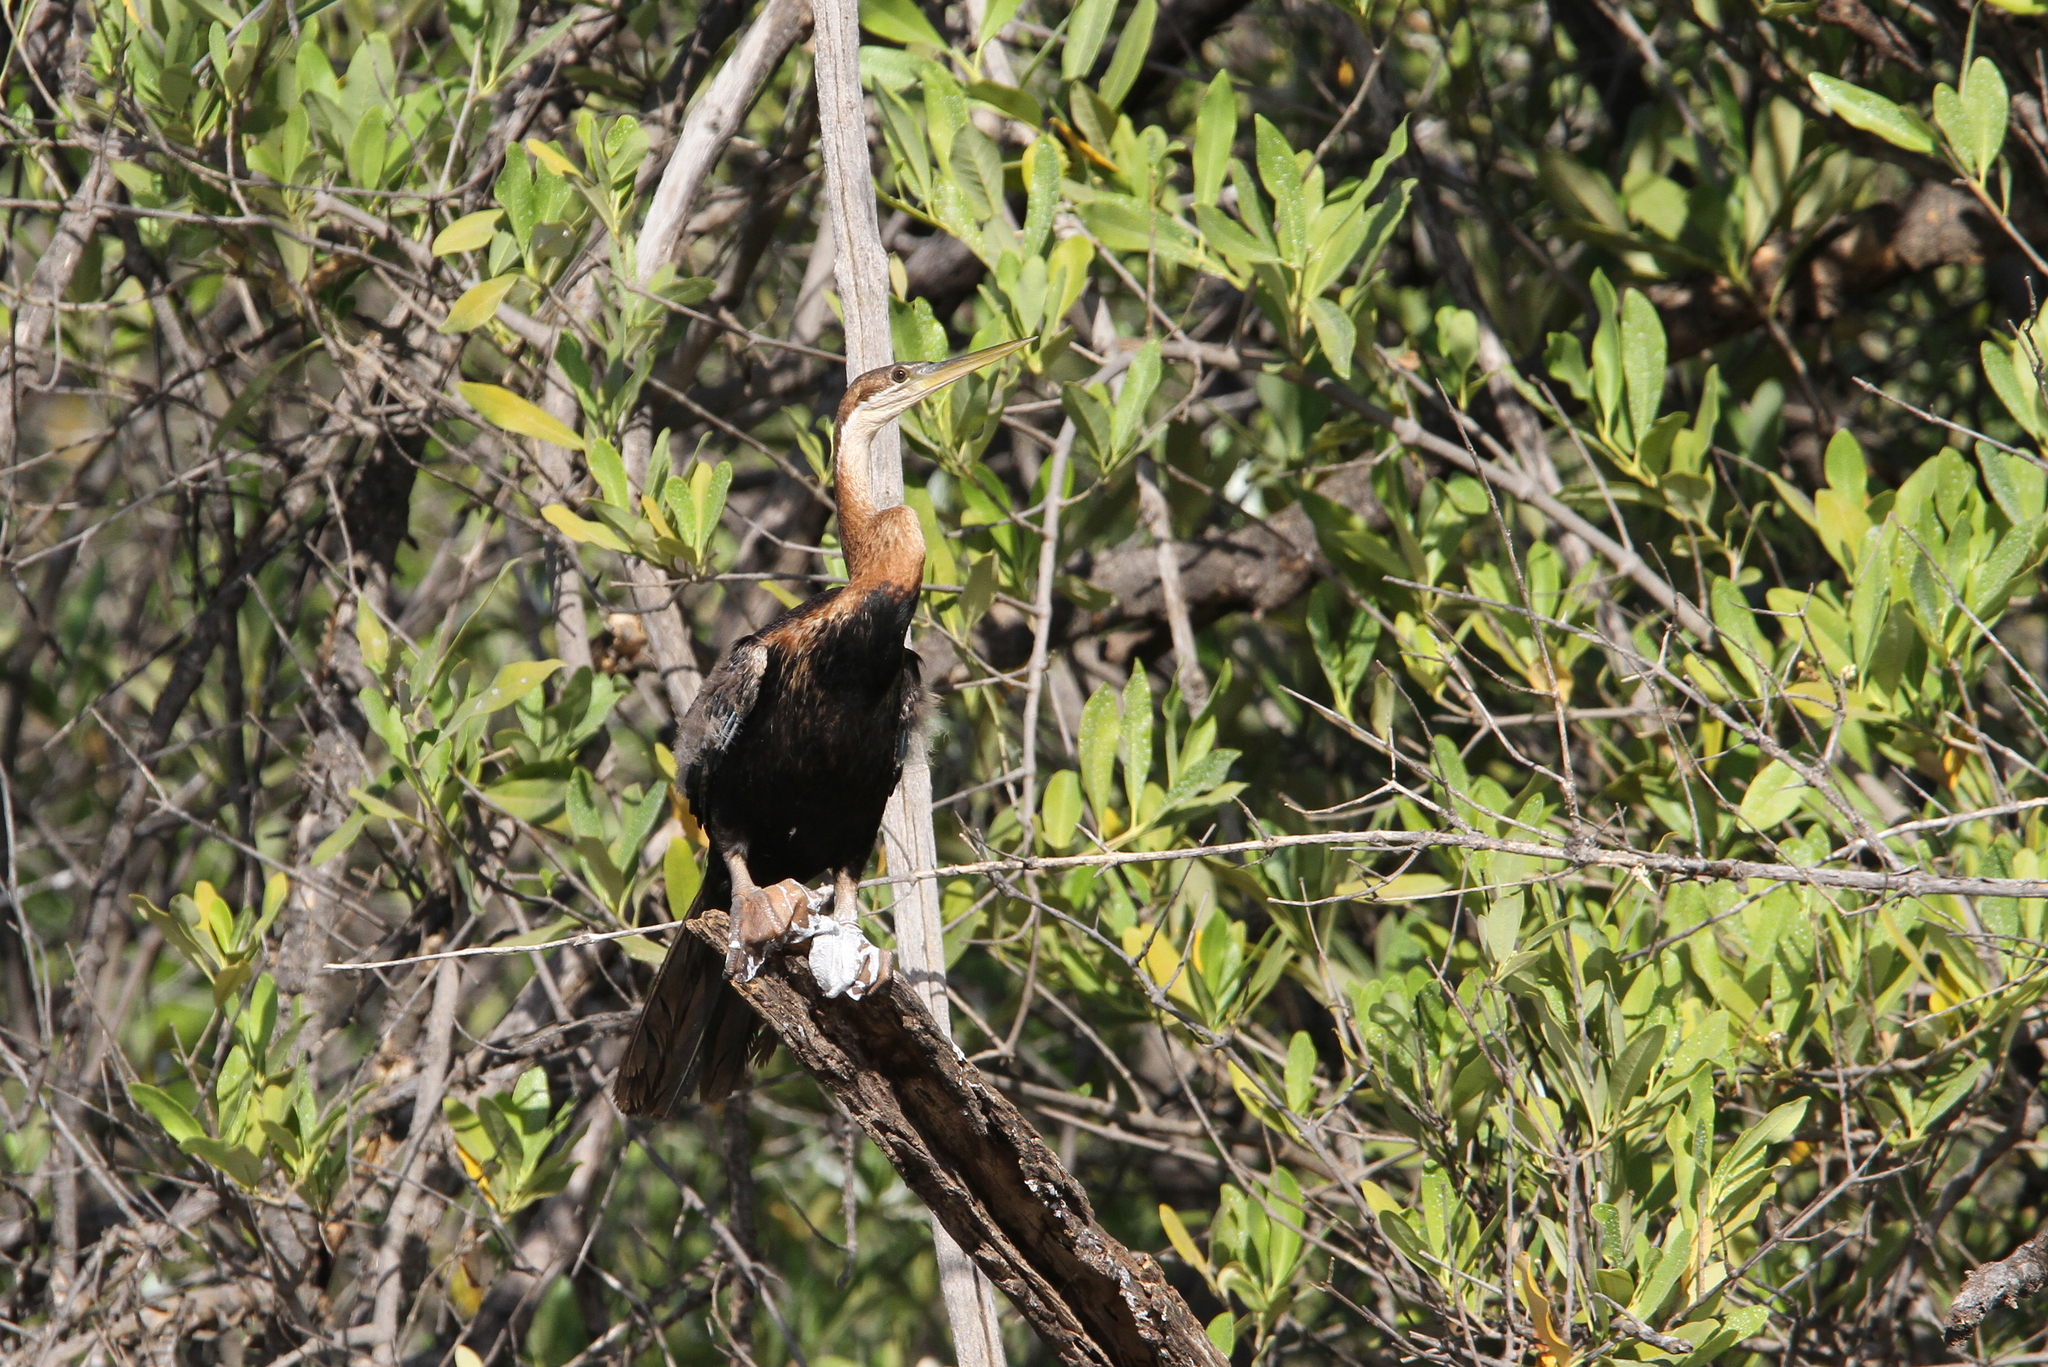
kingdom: Animalia
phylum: Chordata
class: Aves
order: Suliformes
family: Anhingidae
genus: Anhinga
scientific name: Anhinga rufa
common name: African darter
